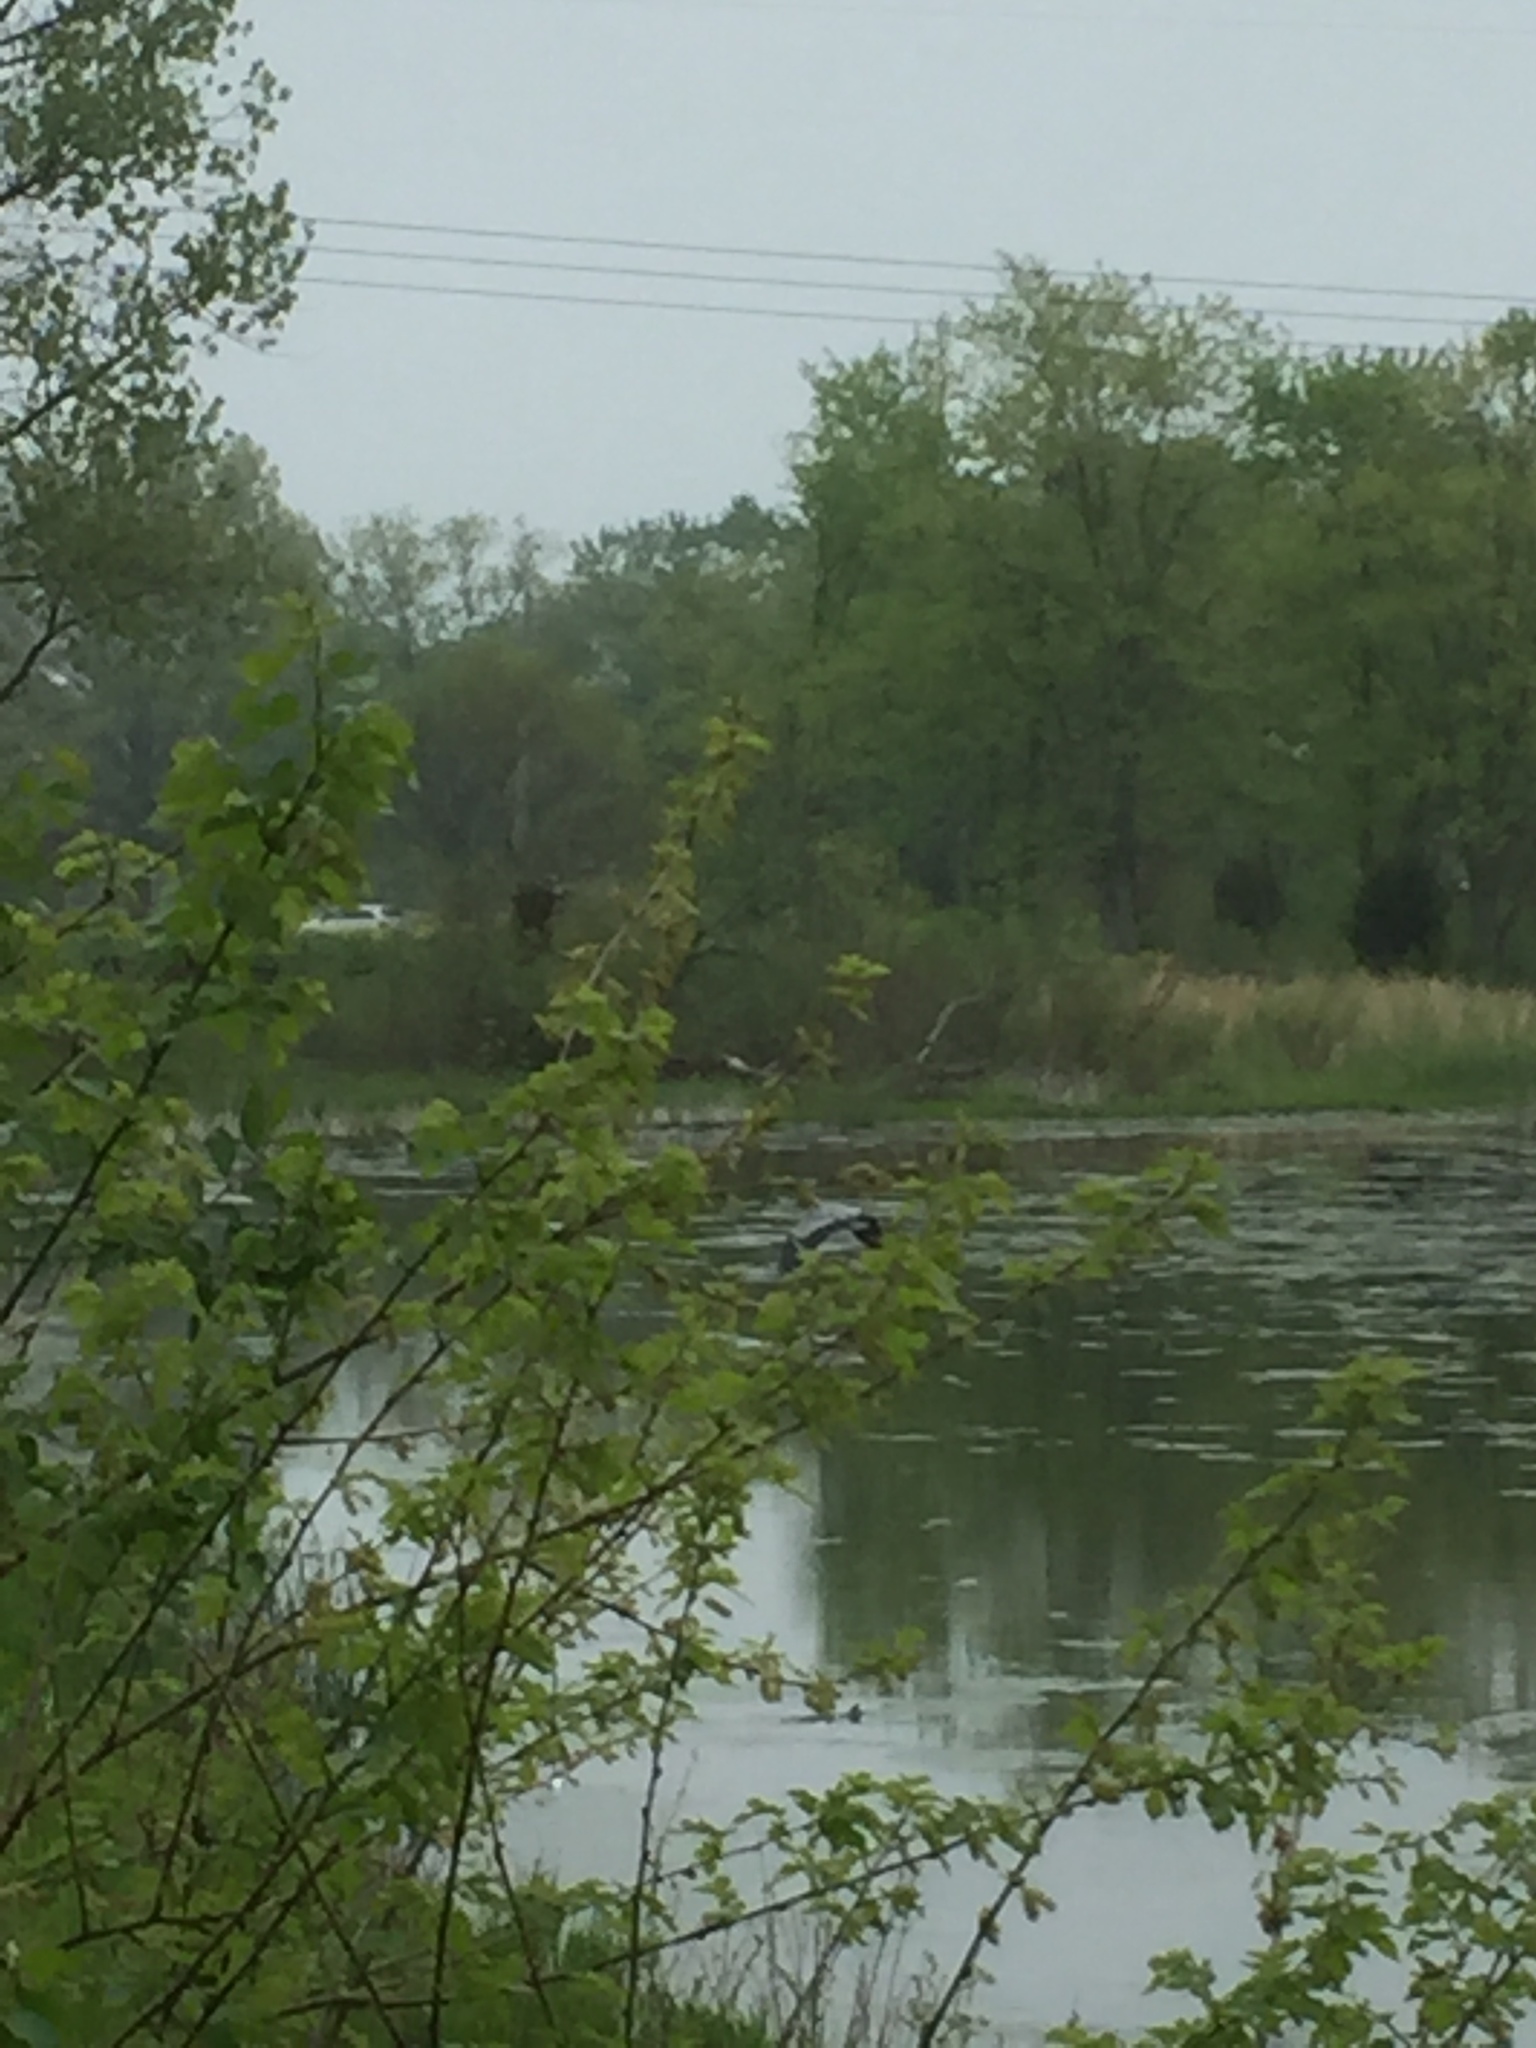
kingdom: Animalia
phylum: Chordata
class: Aves
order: Pelecaniformes
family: Ardeidae
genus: Ardea
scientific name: Ardea herodias
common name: Great blue heron
